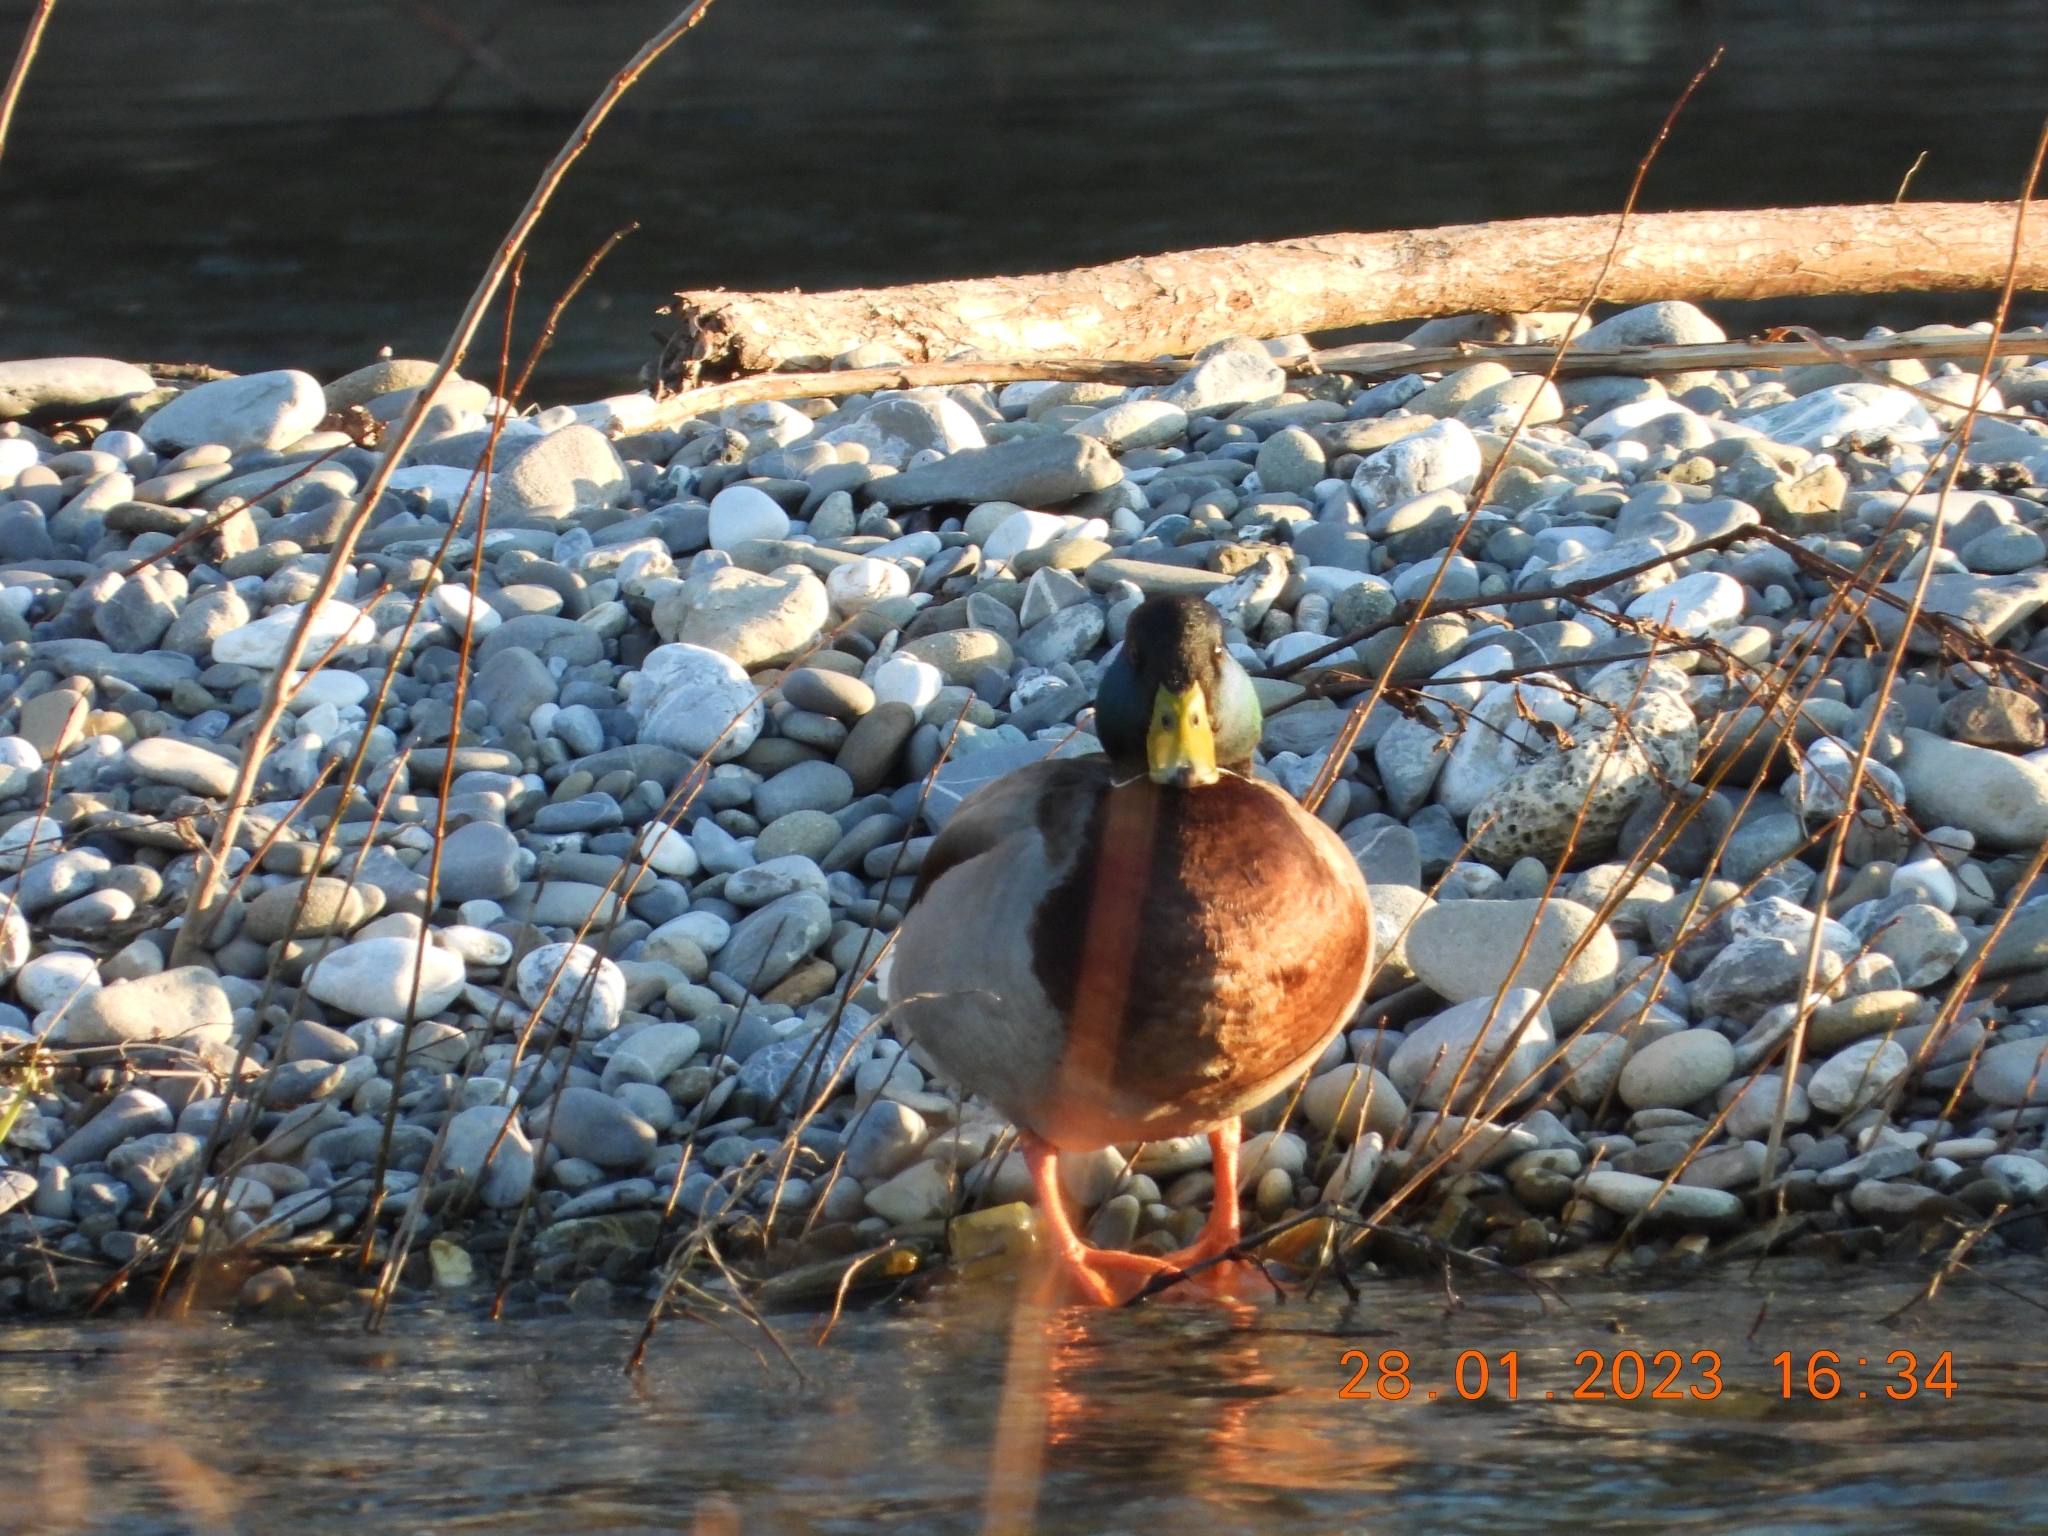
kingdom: Animalia
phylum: Chordata
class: Aves
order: Anseriformes
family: Anatidae
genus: Anas
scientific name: Anas platyrhynchos
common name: Mallard
